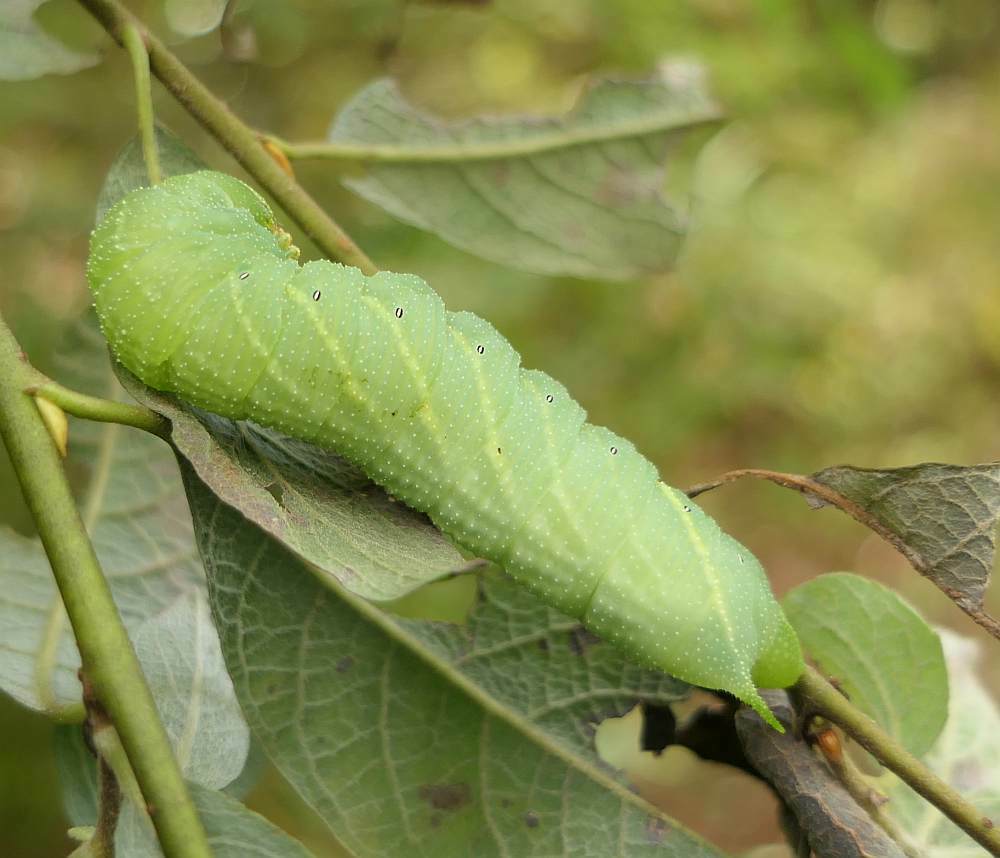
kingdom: Animalia
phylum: Arthropoda
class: Insecta
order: Lepidoptera
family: Sphingidae
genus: Paonias
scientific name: Paonias excaecata
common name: Blind-eyed sphinx
